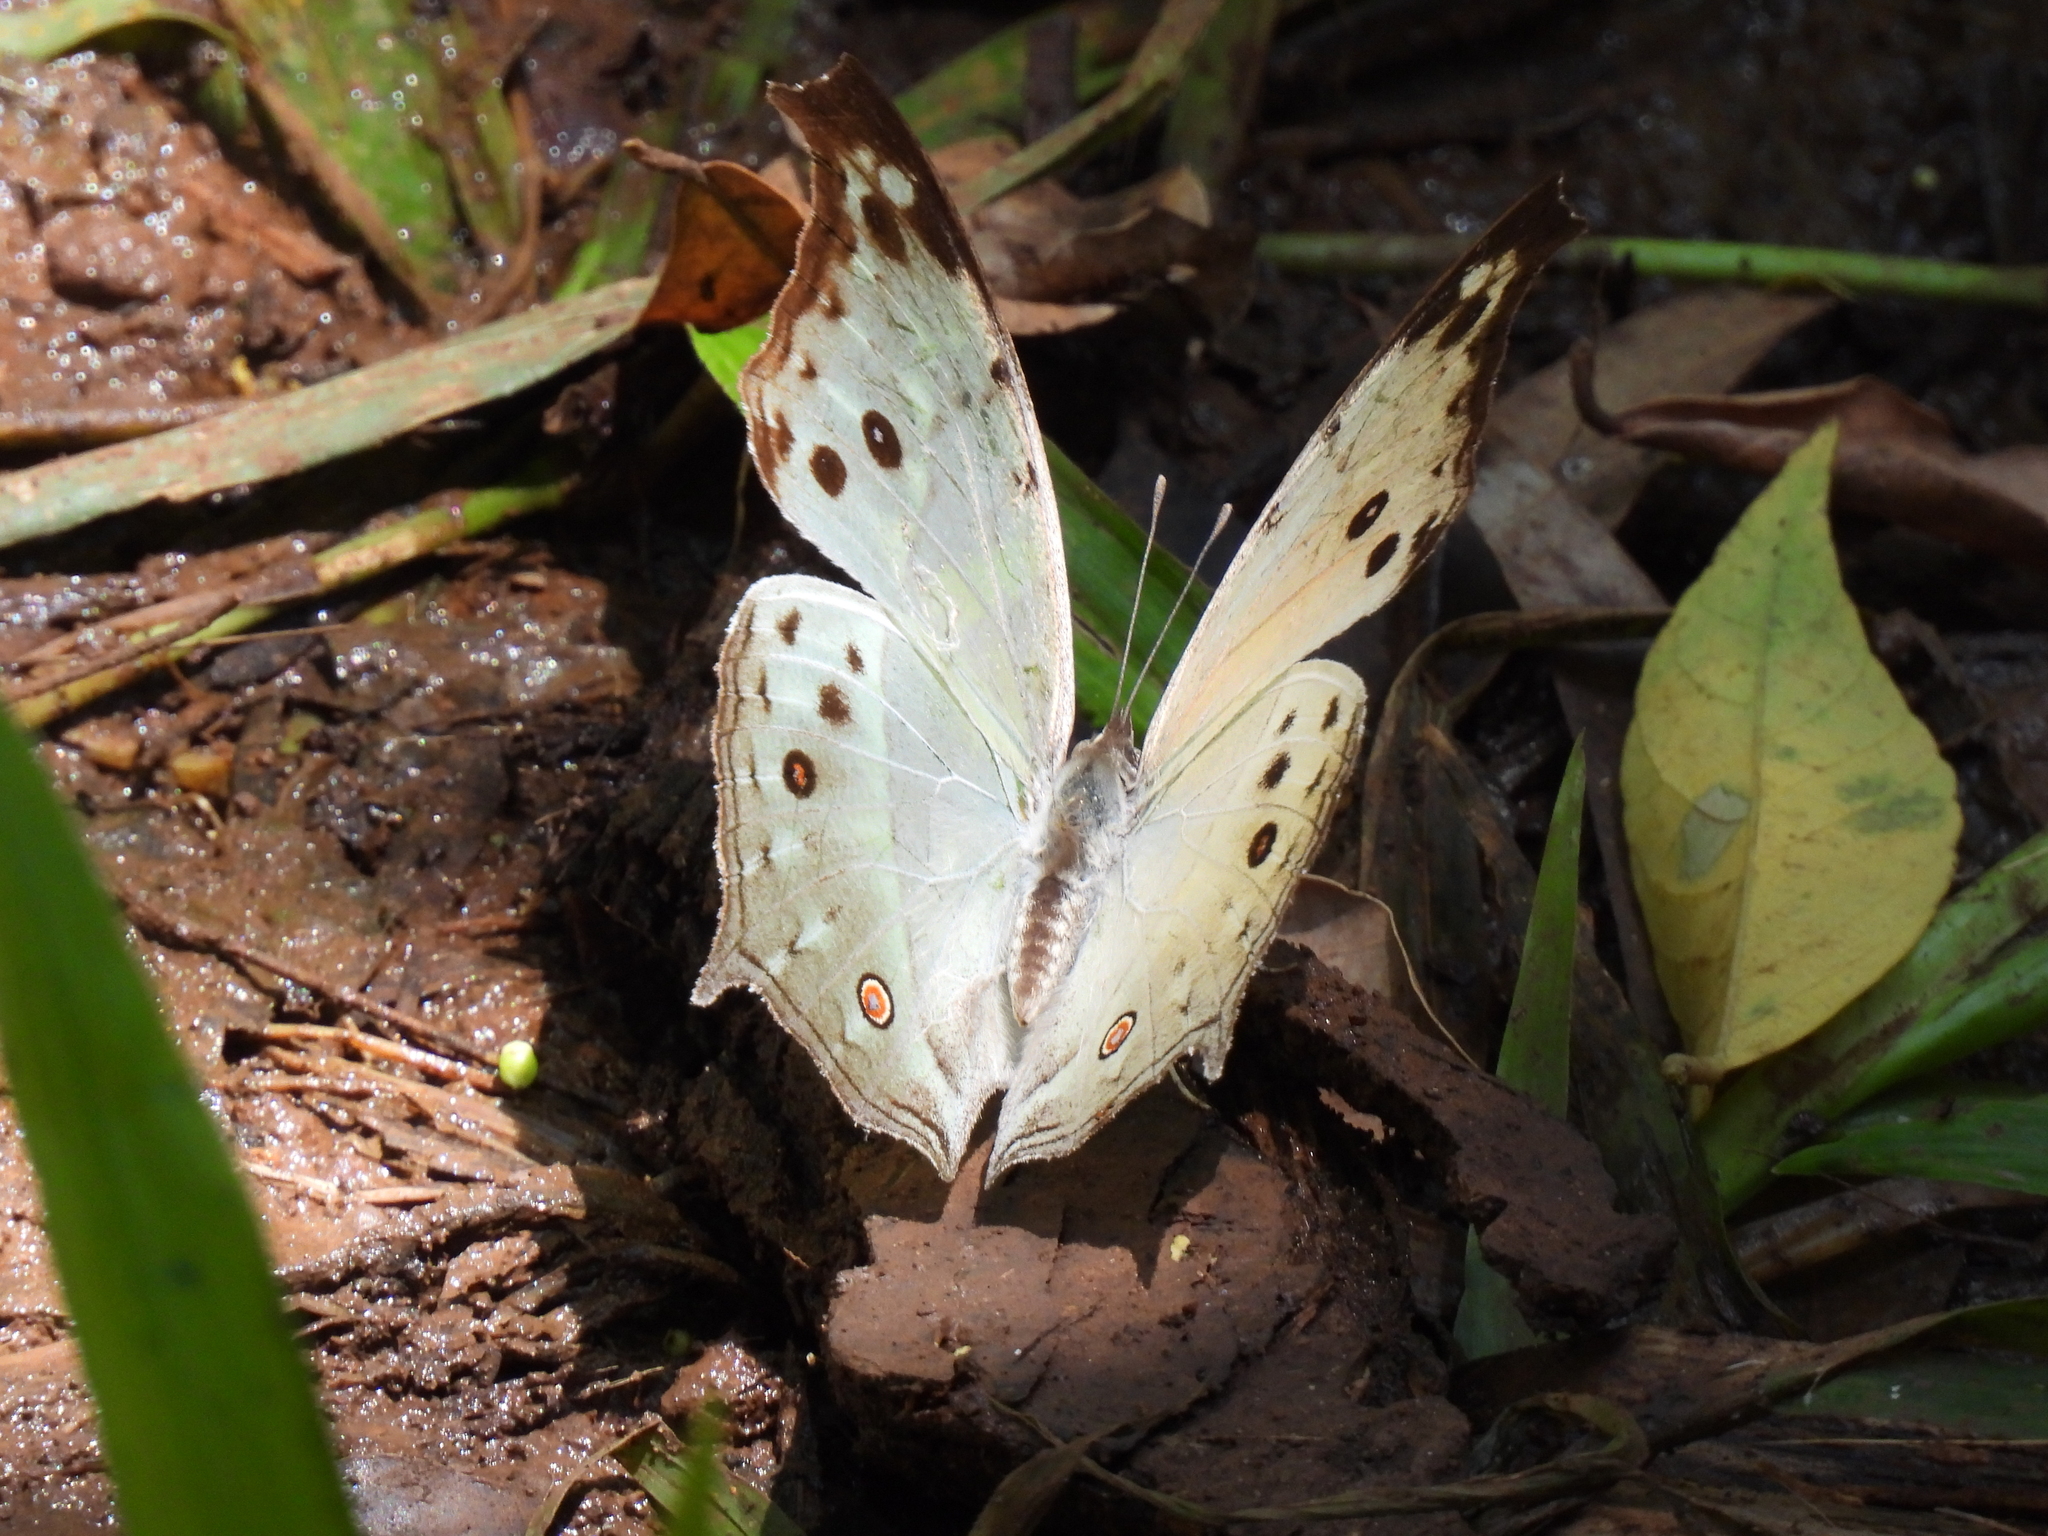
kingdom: Animalia
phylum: Arthropoda
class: Insecta
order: Lepidoptera
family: Nymphalidae
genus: Salamis
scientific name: Salamis Protogoniomorpha parhassus
